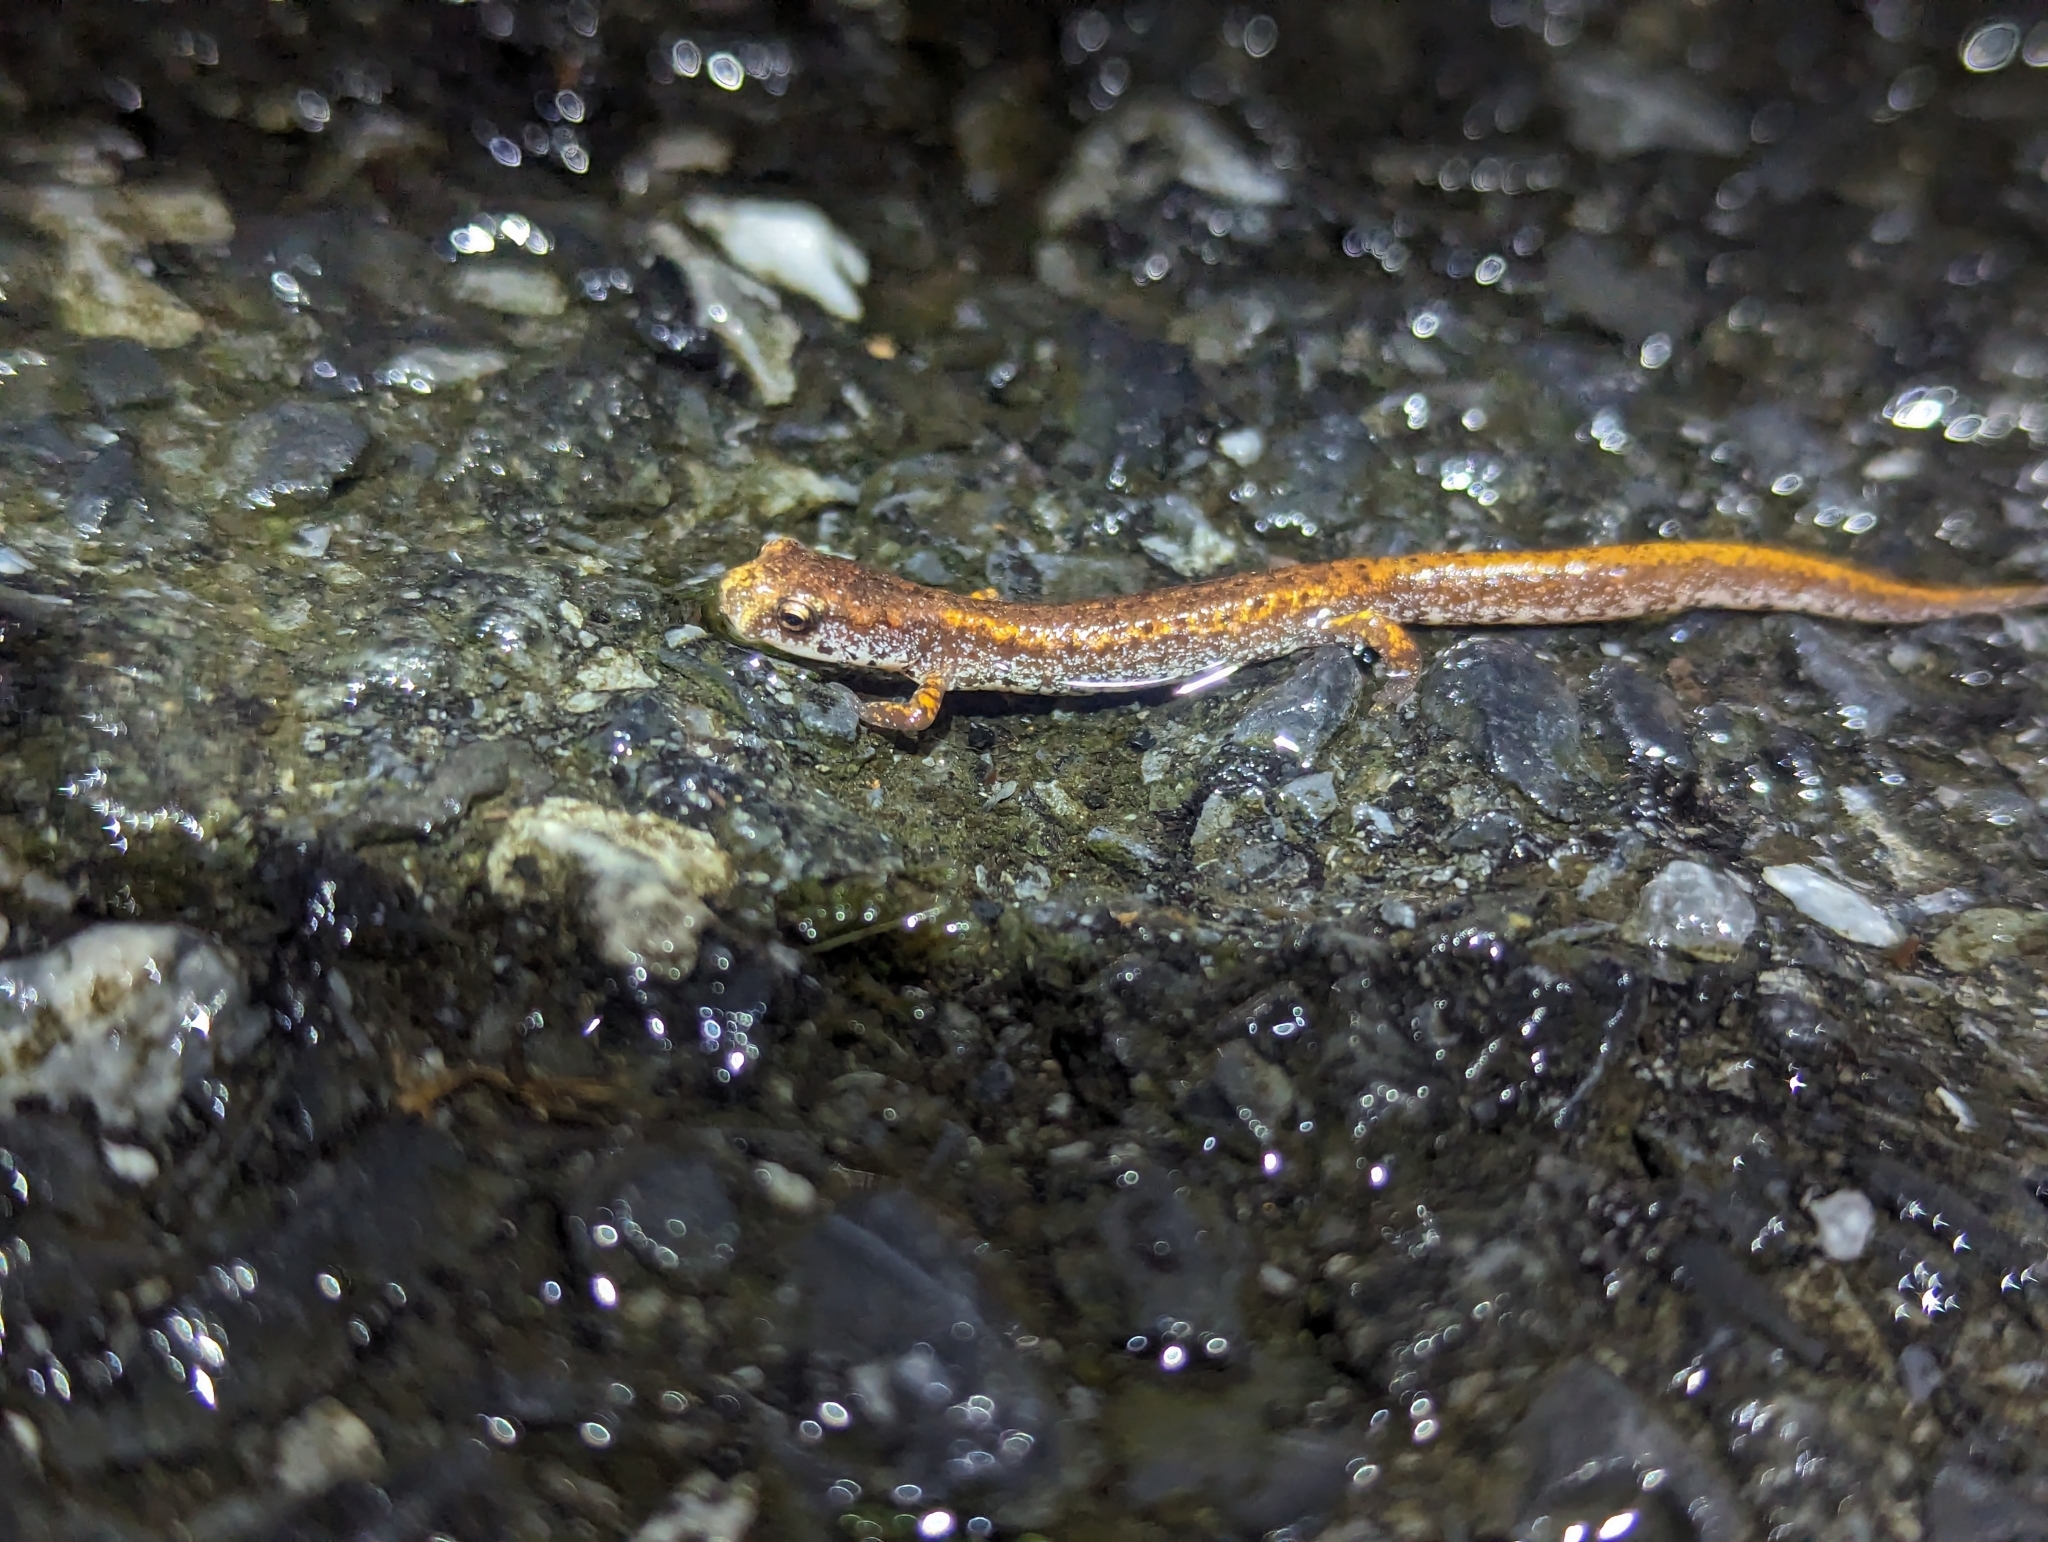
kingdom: Animalia
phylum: Chordata
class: Amphibia
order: Caudata
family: Plethodontidae
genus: Hemidactylium
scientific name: Hemidactylium scutatum
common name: Four-toed salamander
